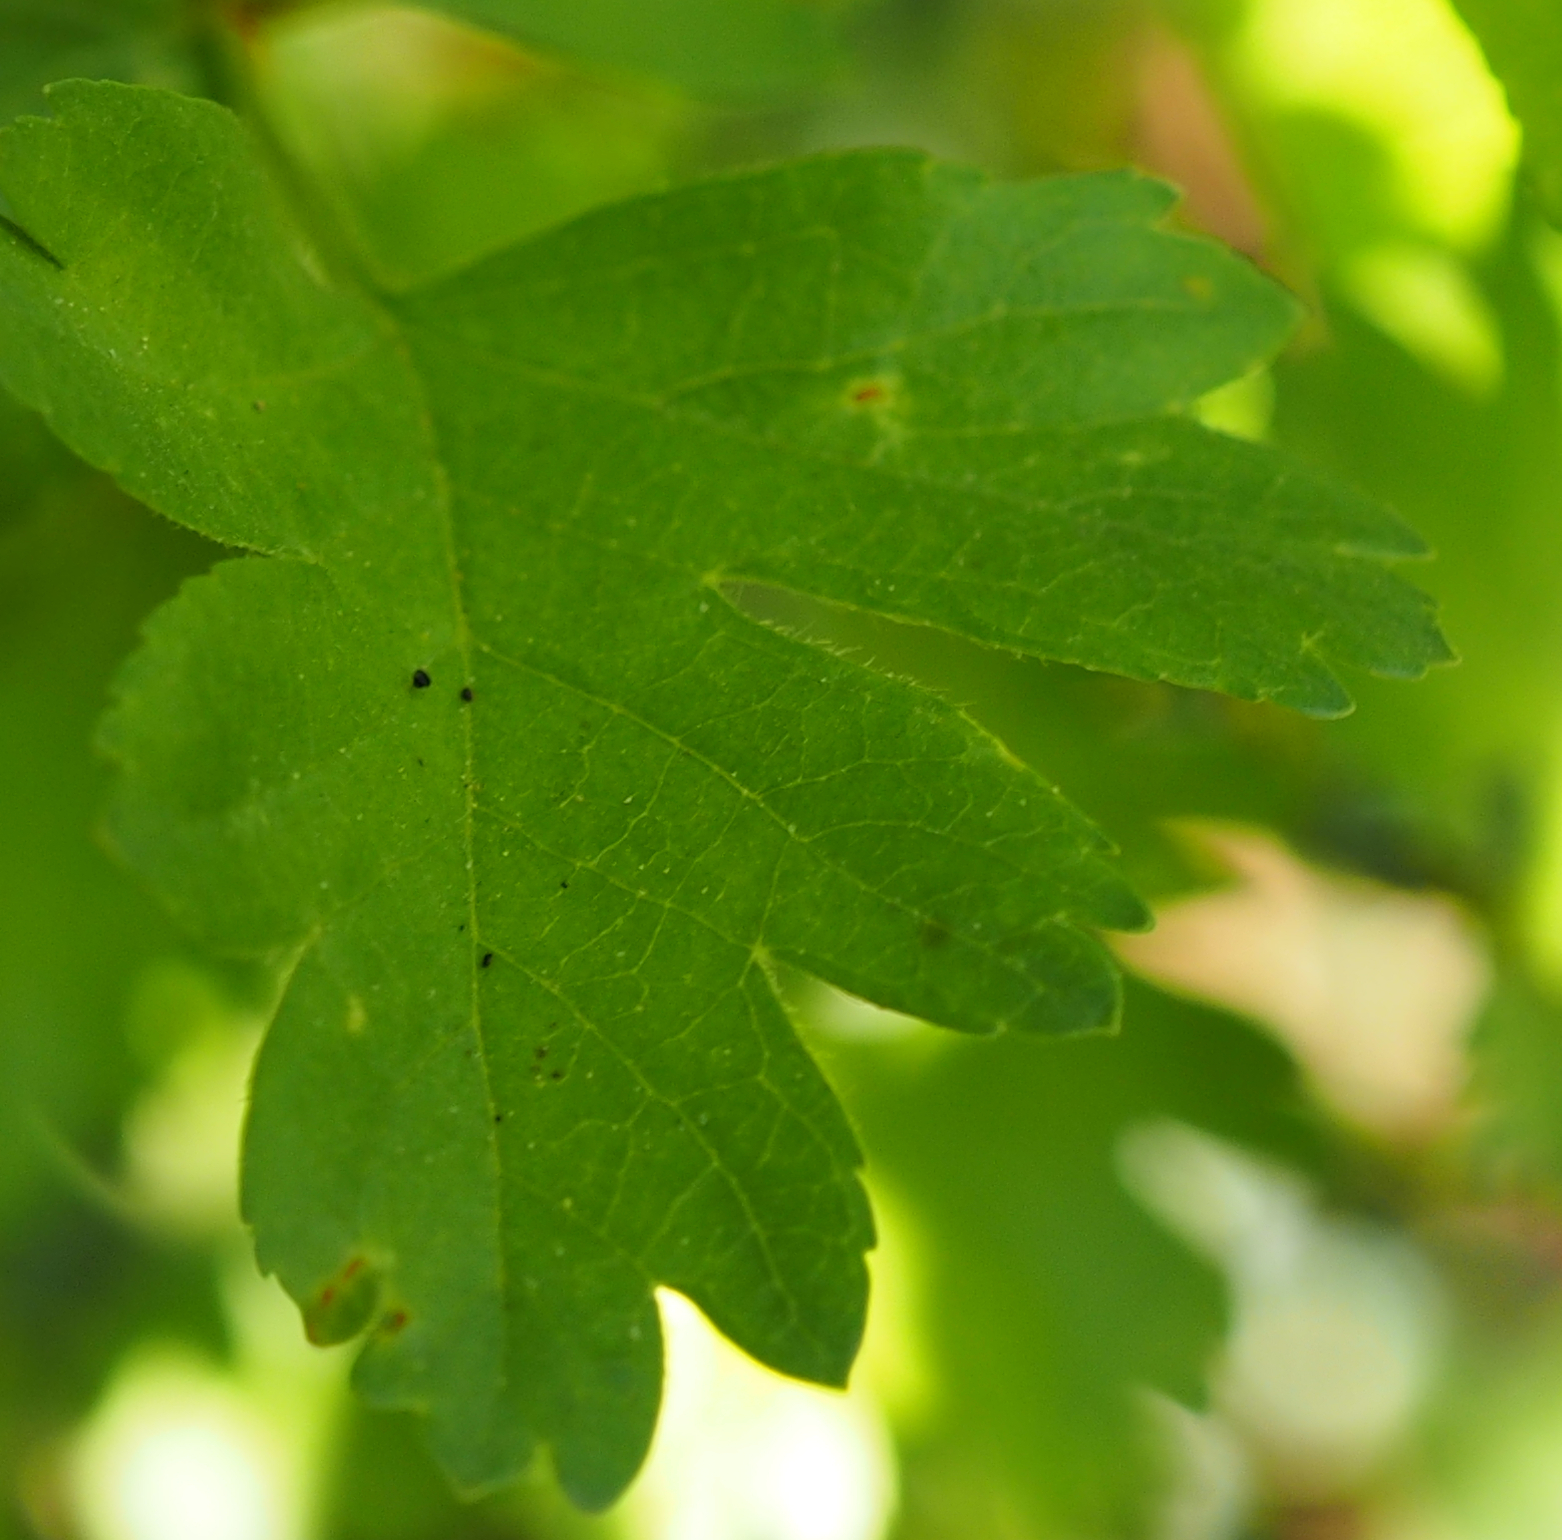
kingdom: Plantae
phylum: Tracheophyta
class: Magnoliopsida
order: Rosales
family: Rosaceae
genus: Crataegus
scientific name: Crataegus monogyna
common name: Hawthorn
